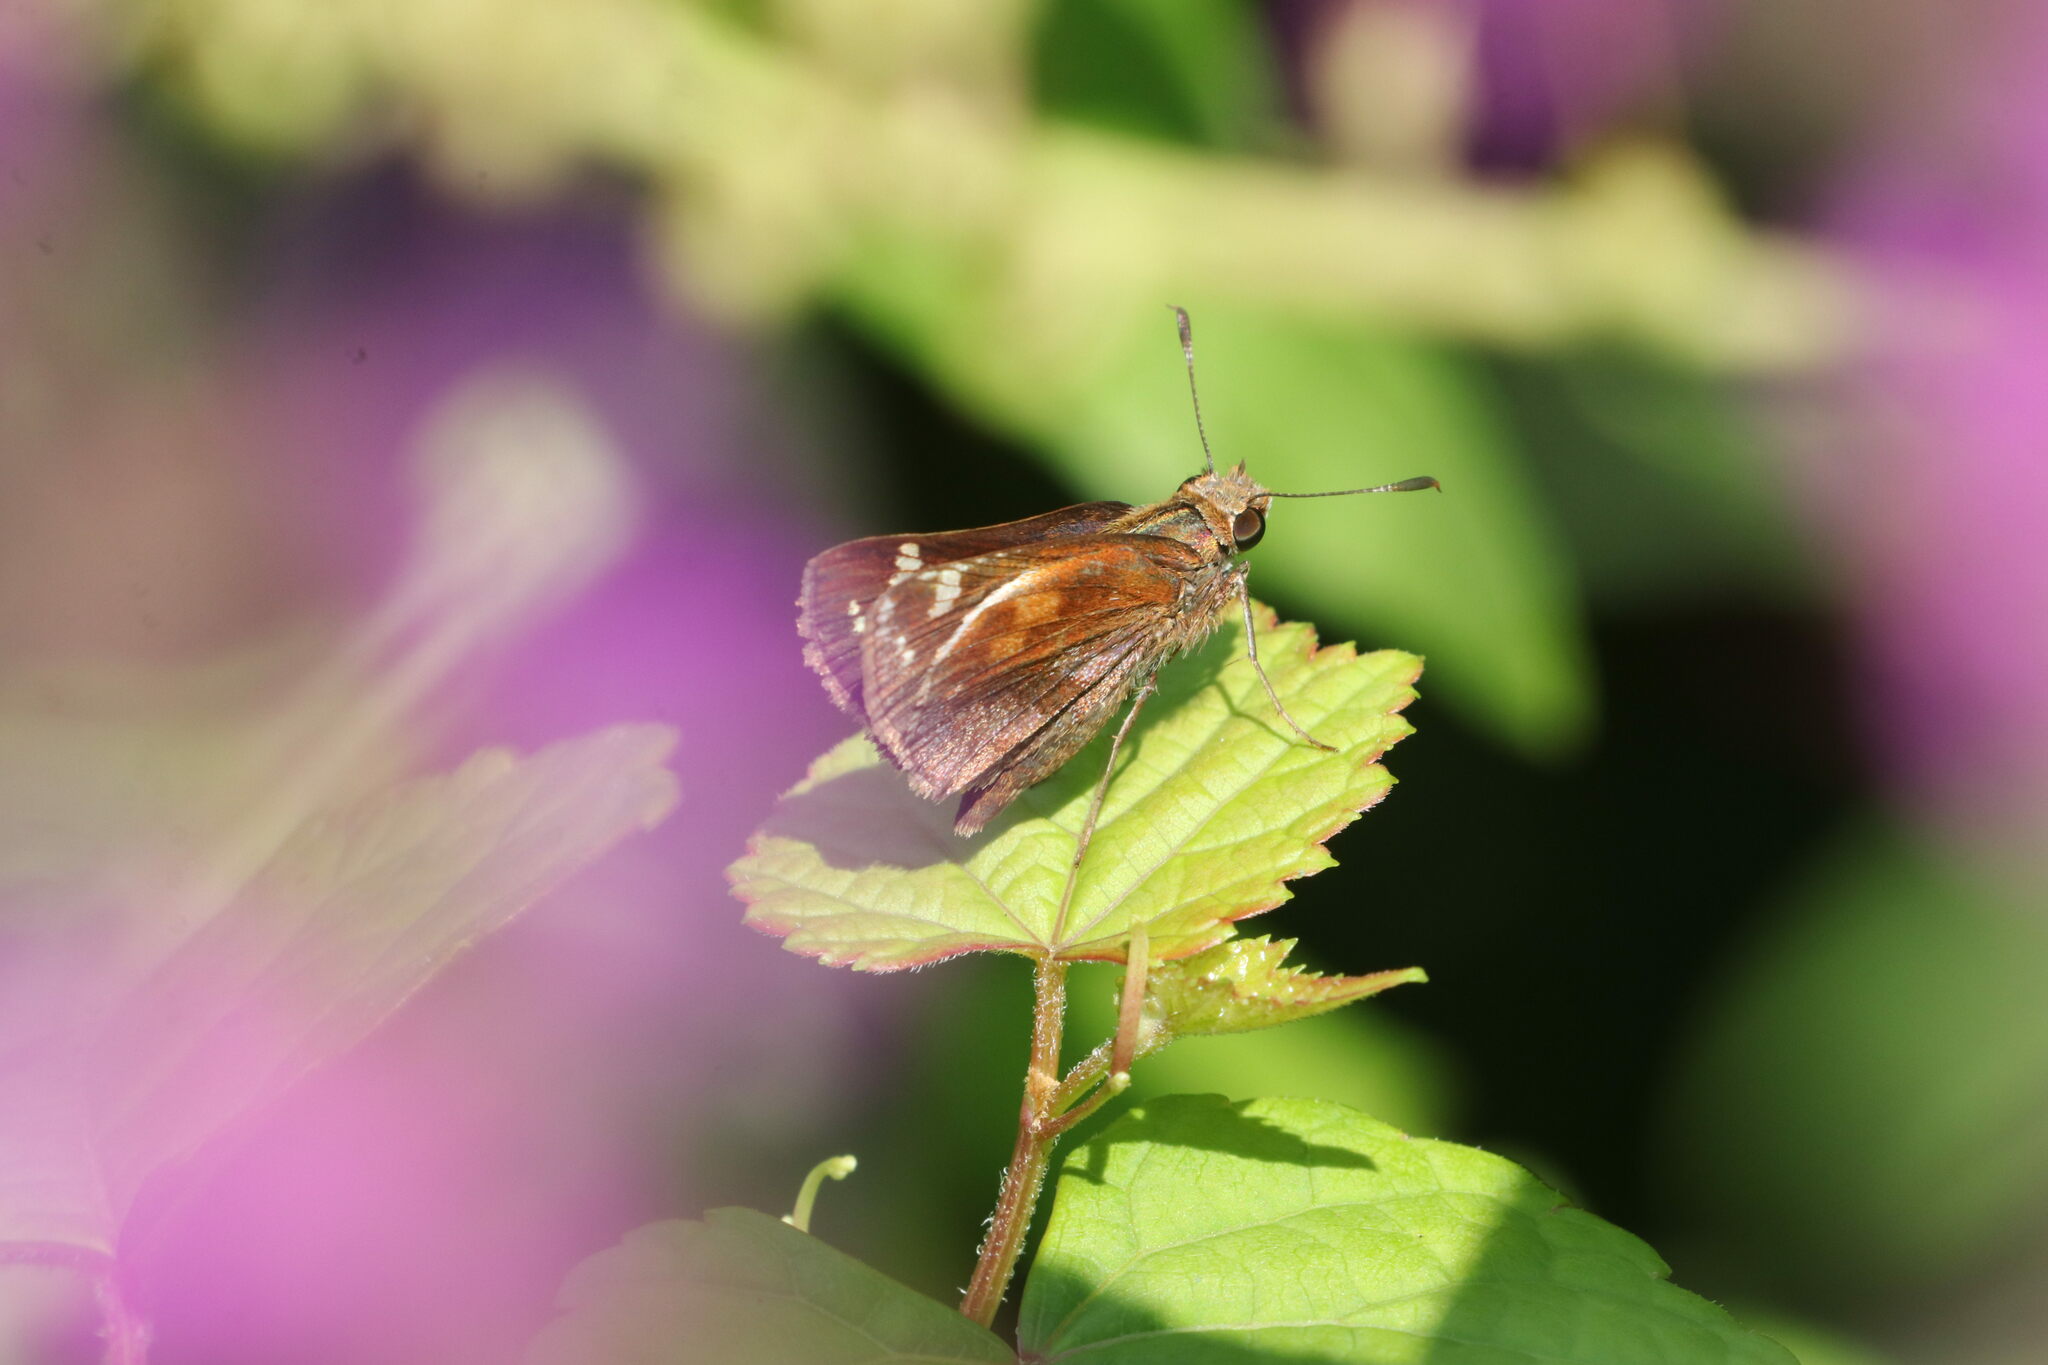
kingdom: Animalia
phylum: Arthropoda
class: Insecta
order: Lepidoptera
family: Hesperiidae
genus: Lon
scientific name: Lon zabulon
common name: Zabulon skipper
